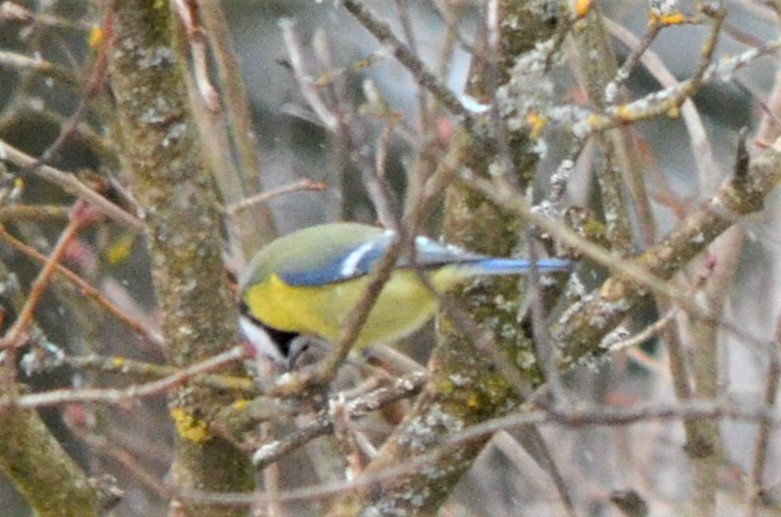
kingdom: Animalia
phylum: Chordata
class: Aves
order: Passeriformes
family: Paridae
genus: Cyanistes
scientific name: Cyanistes caeruleus
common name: Eurasian blue tit
